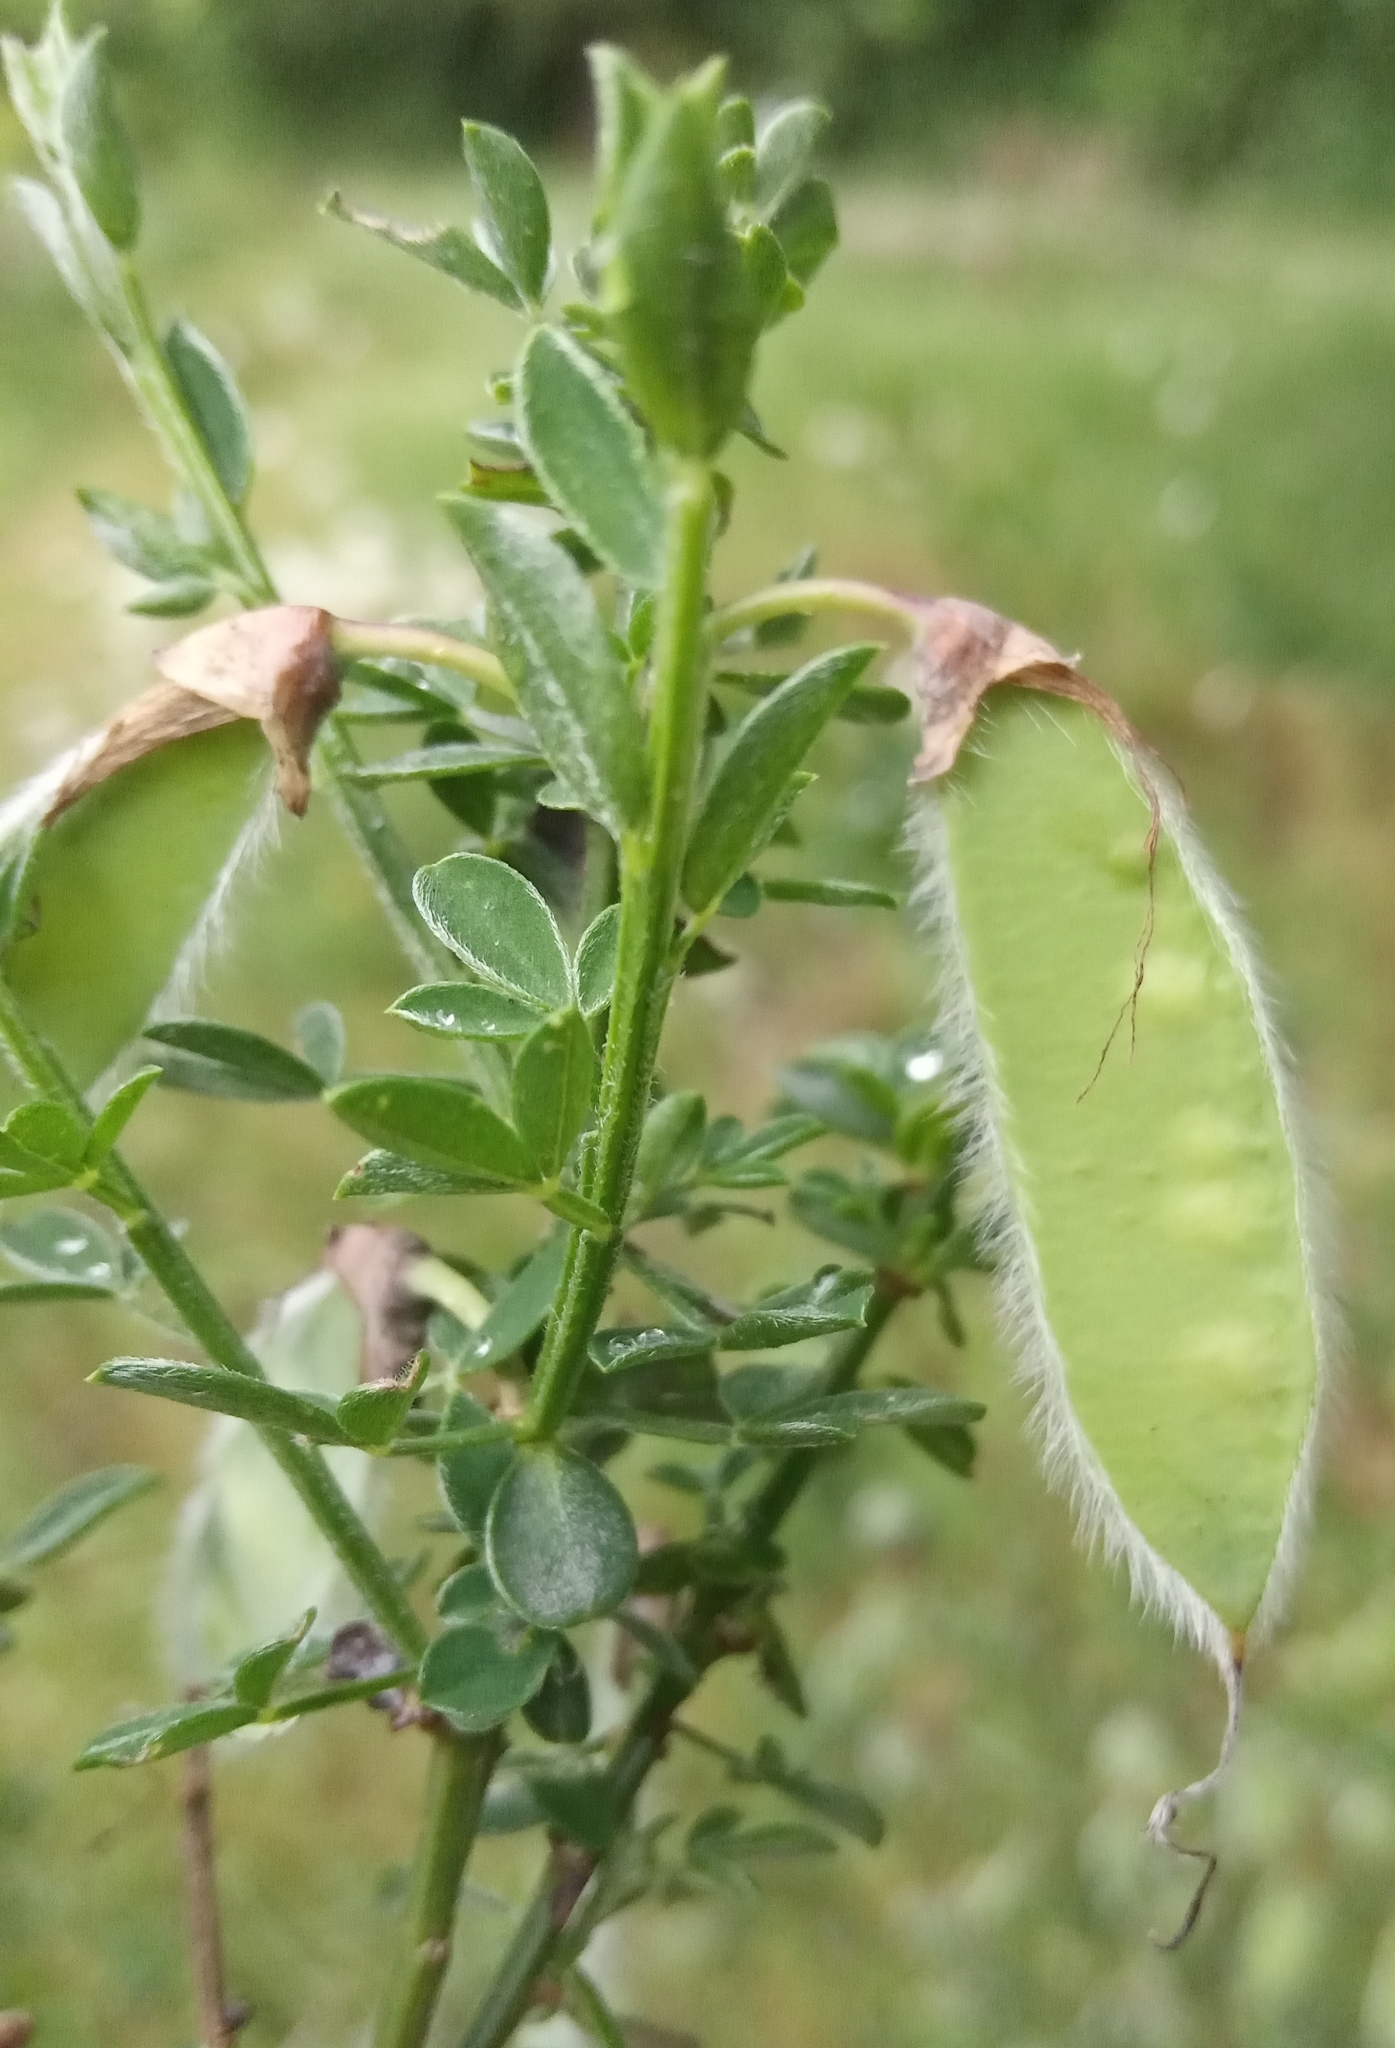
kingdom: Plantae
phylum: Tracheophyta
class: Magnoliopsida
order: Fabales
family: Fabaceae
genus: Cytisus
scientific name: Cytisus scoparius
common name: Scotch broom
